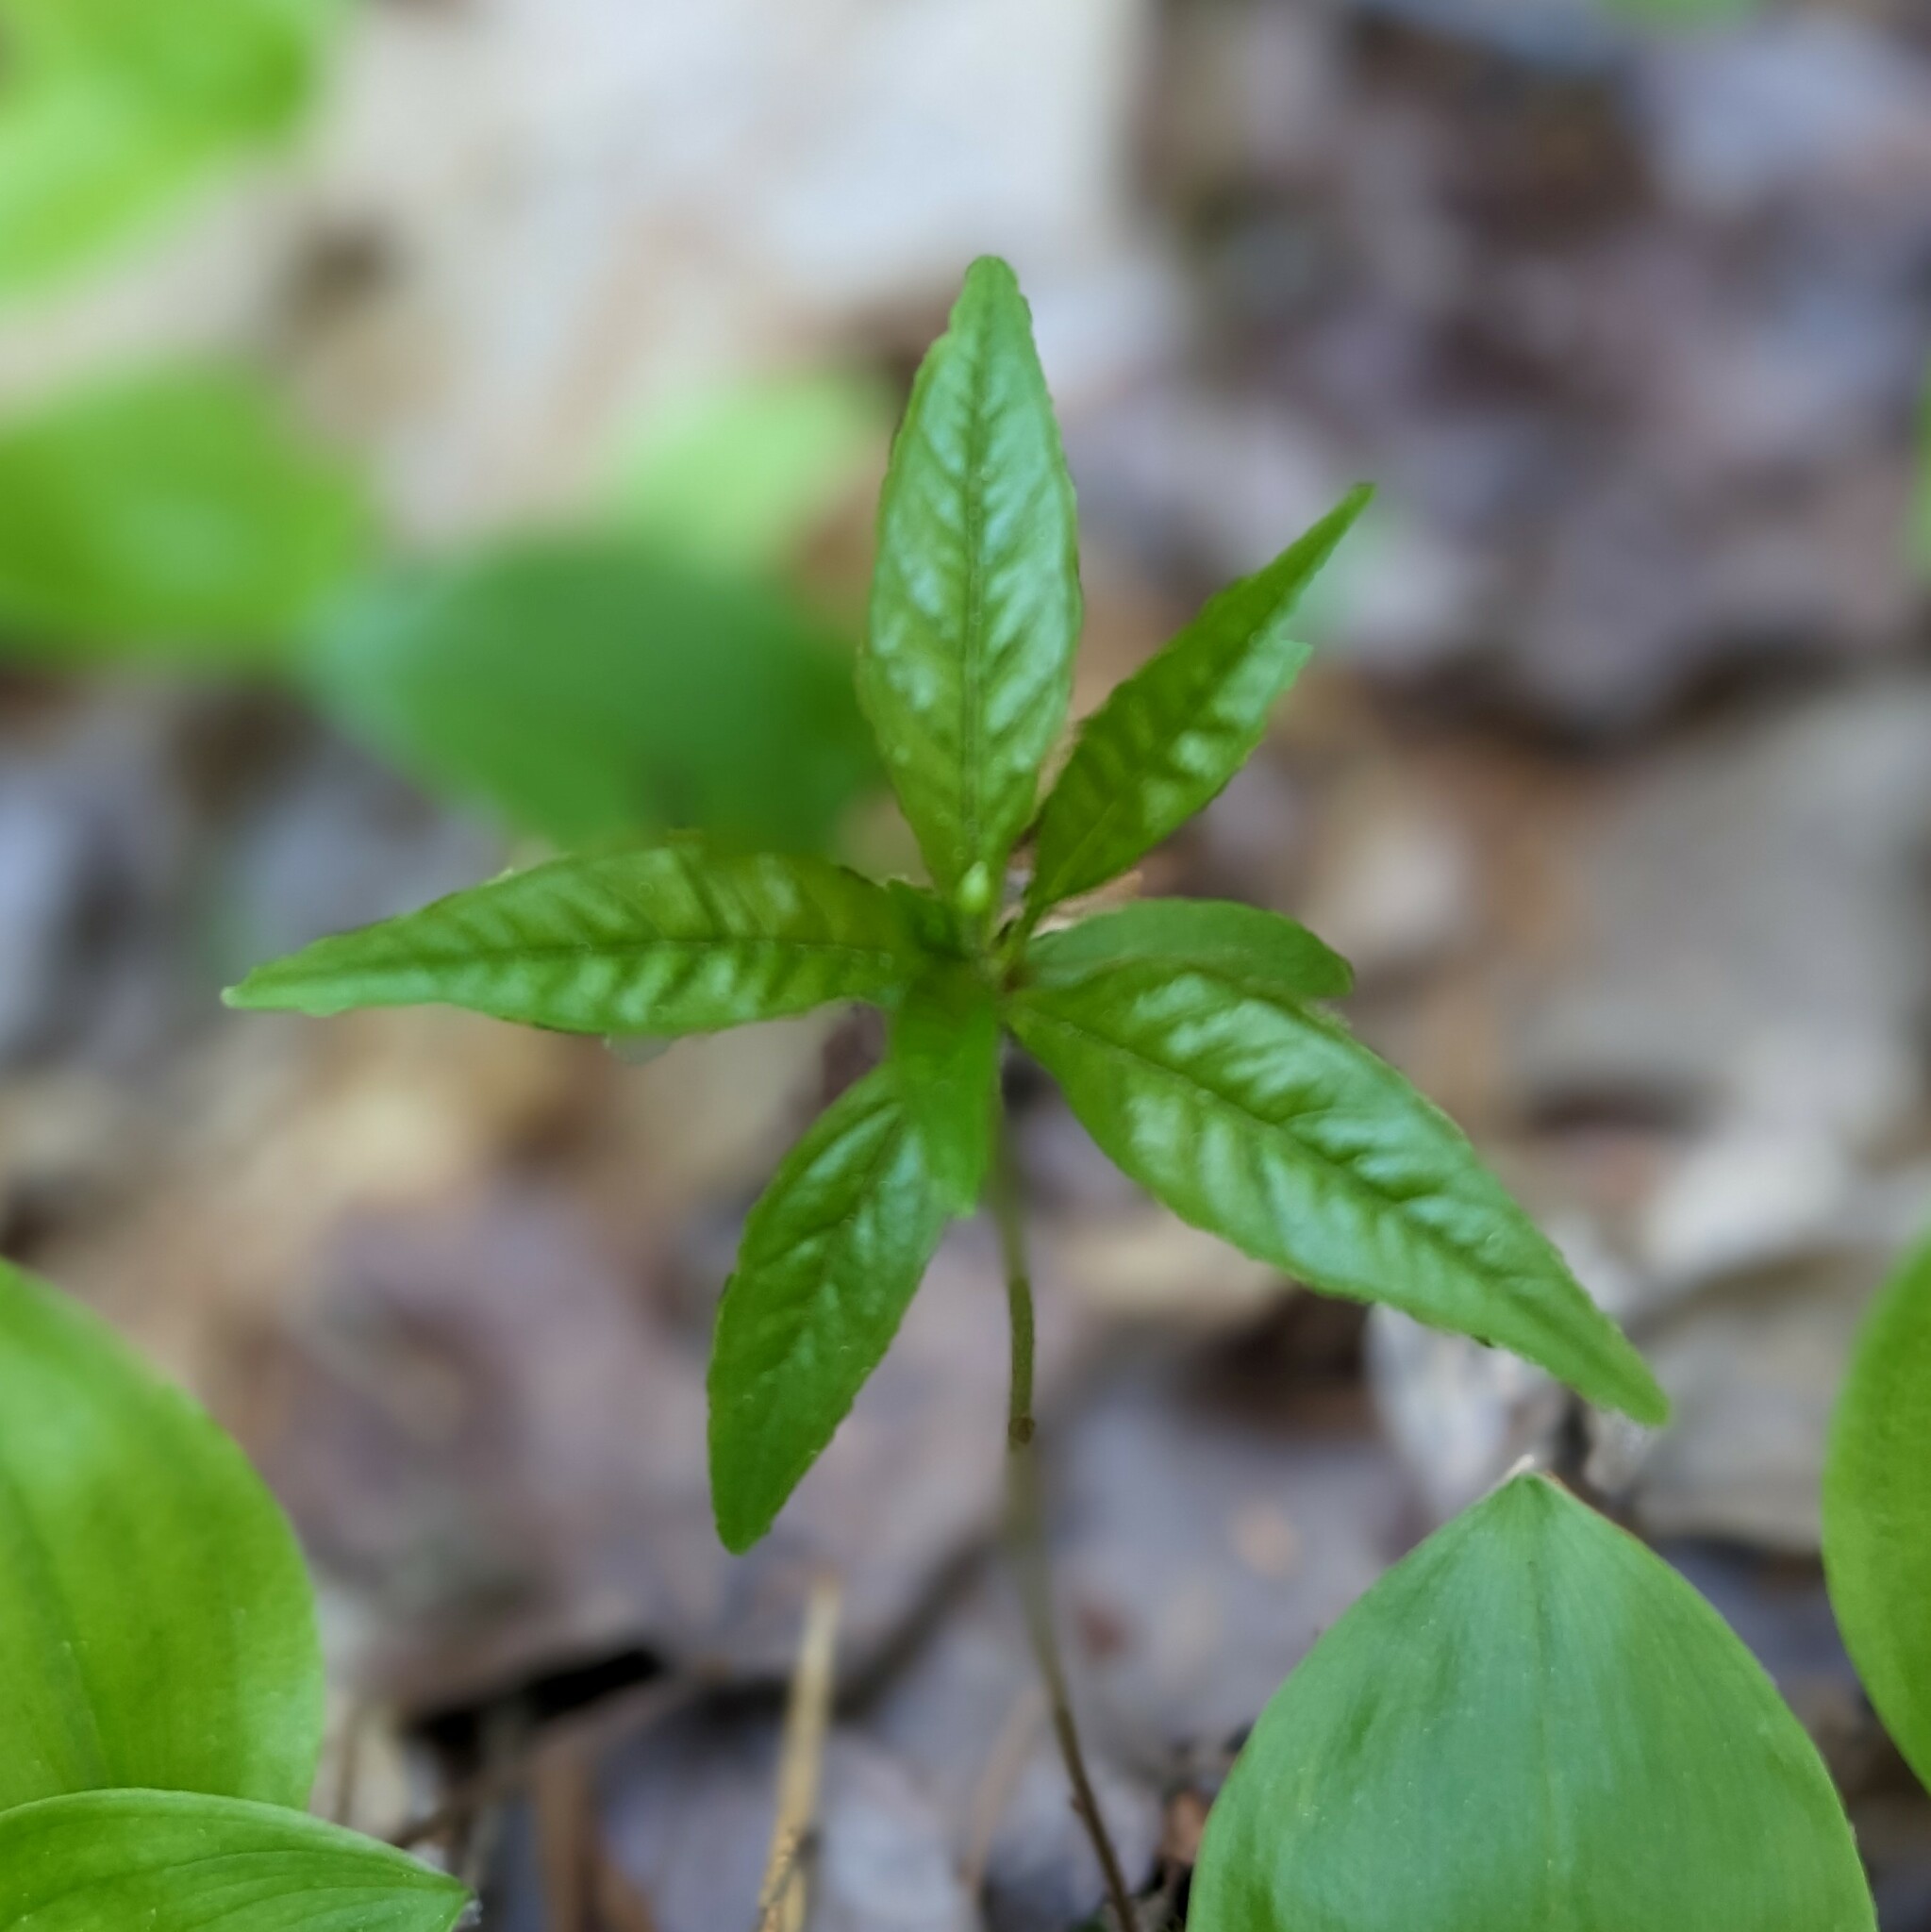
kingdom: Plantae
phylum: Tracheophyta
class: Magnoliopsida
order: Ericales
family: Primulaceae
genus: Lysimachia
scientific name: Lysimachia borealis
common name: American starflower
